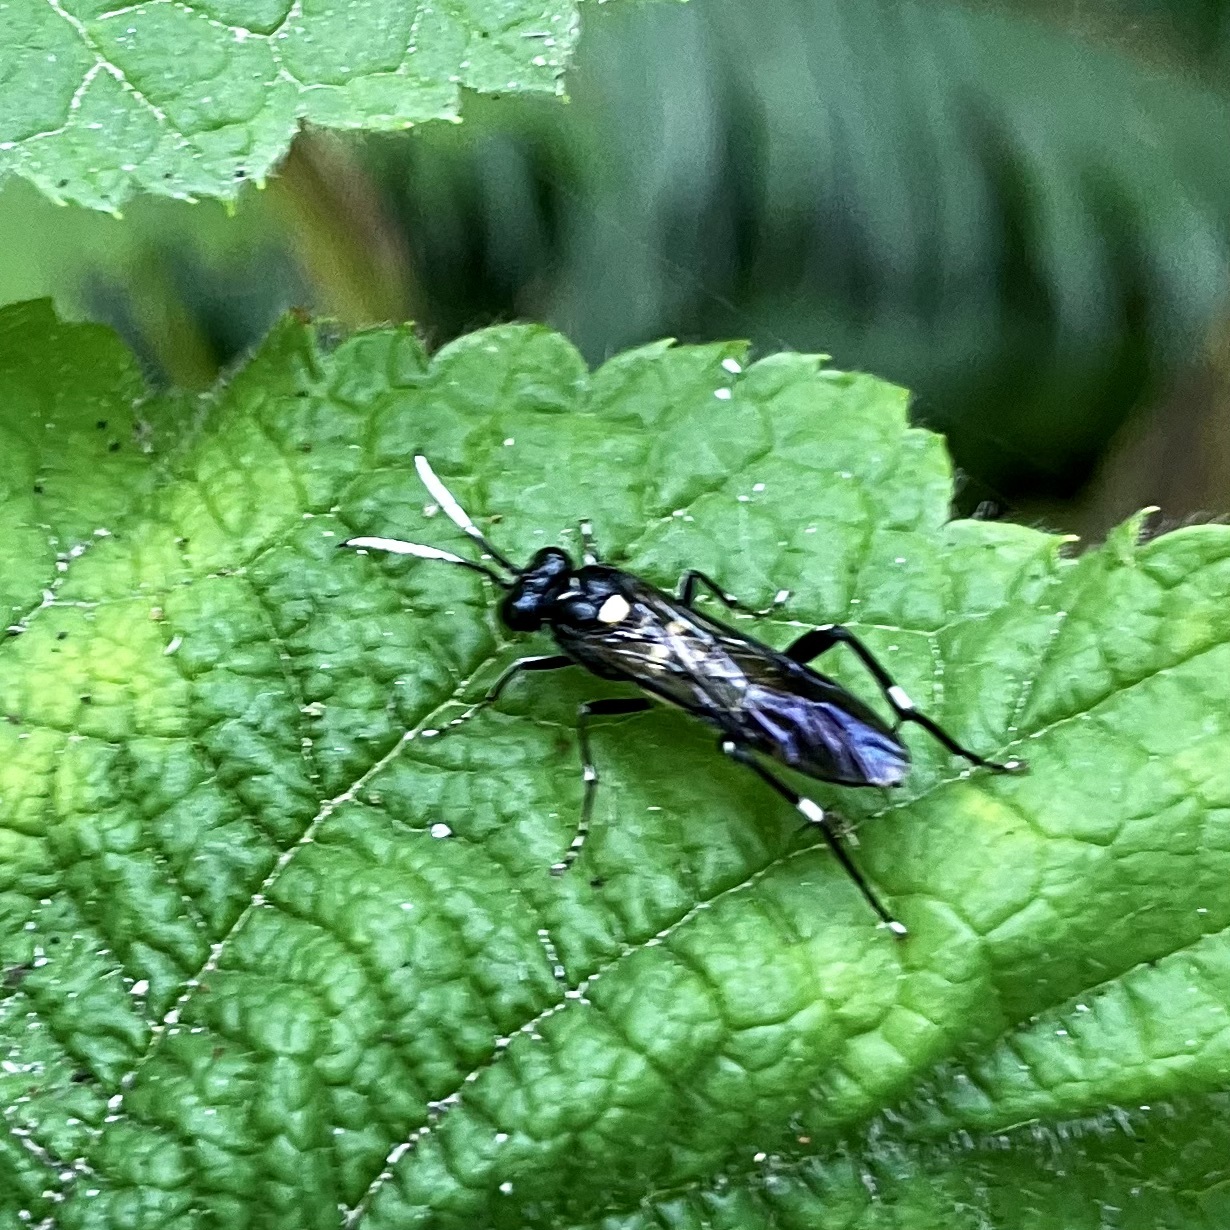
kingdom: Animalia
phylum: Arthropoda
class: Insecta
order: Hymenoptera
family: Tenthredinidae
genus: Macrophya
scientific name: Macrophya oregona
